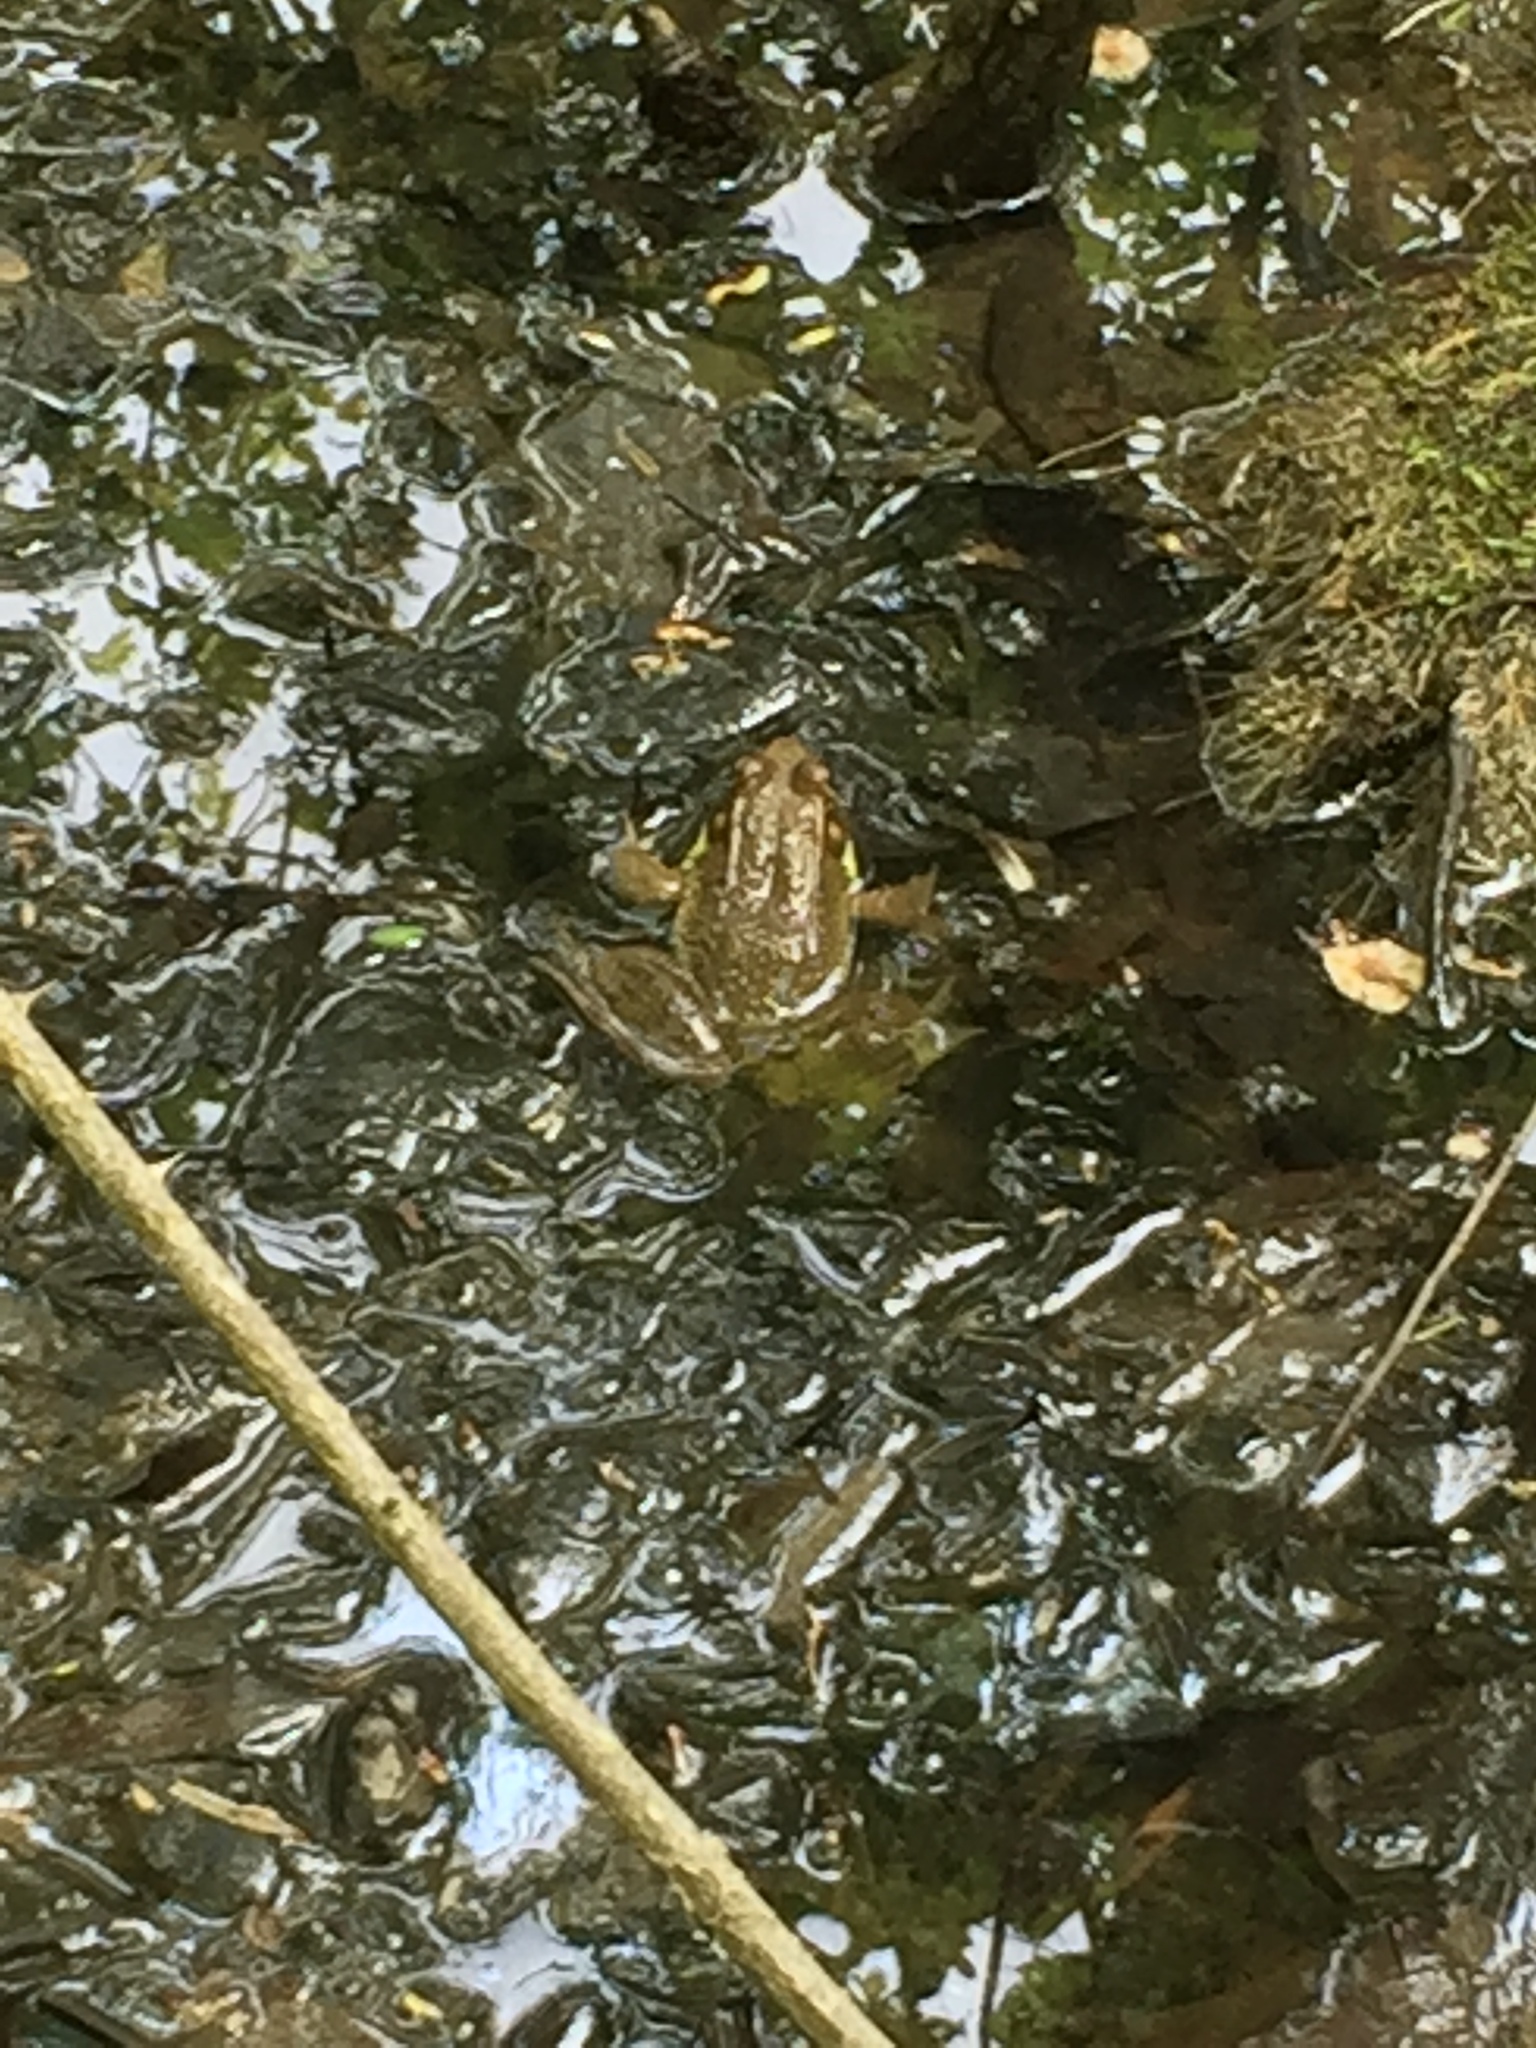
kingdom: Animalia
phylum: Chordata
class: Amphibia
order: Anura
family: Ranidae
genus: Lithobates
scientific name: Lithobates clamitans
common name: Green frog
